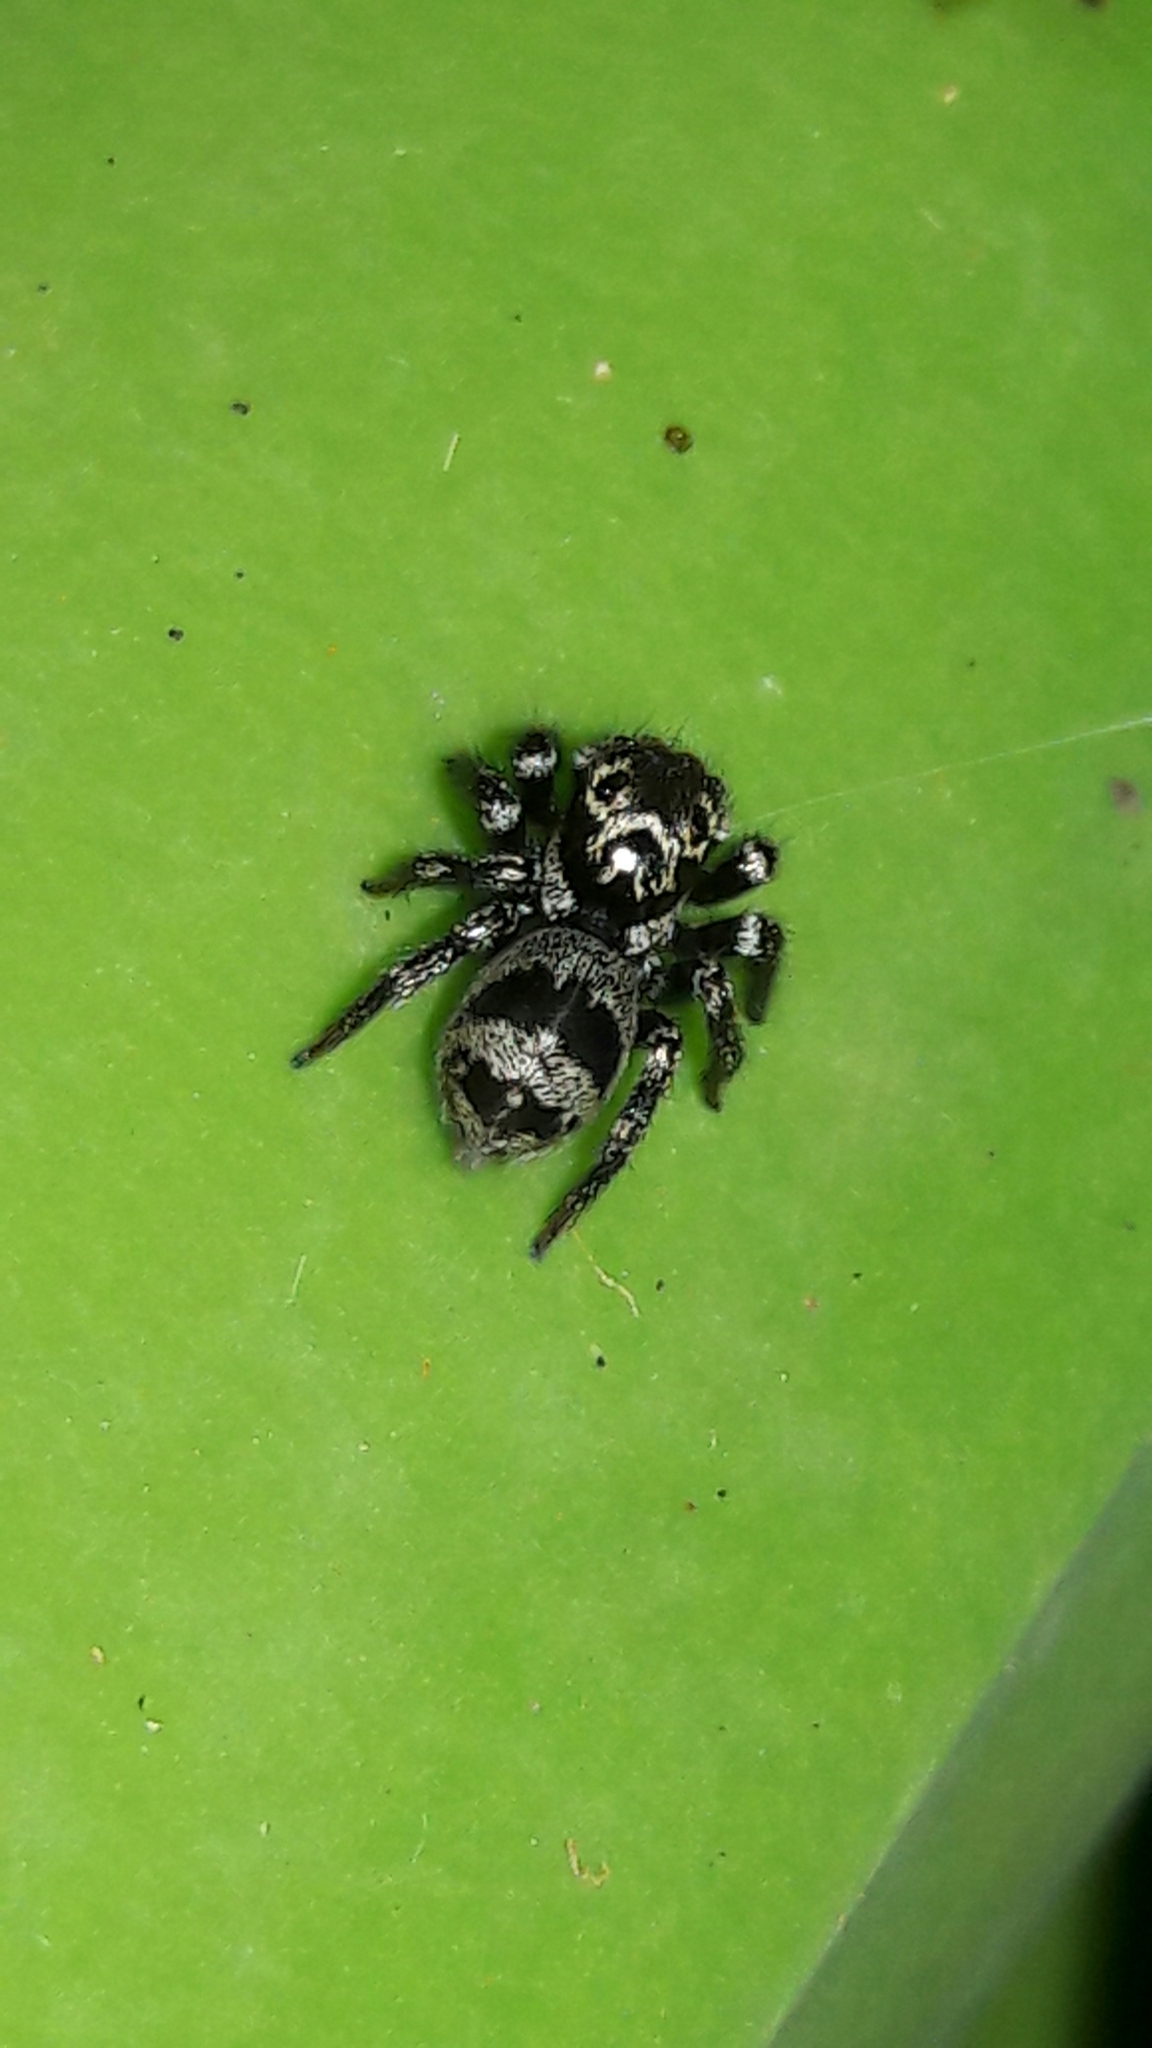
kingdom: Animalia
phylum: Arthropoda
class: Arachnida
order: Araneae
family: Salticidae
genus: Corythalia
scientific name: Corythalia conferta
